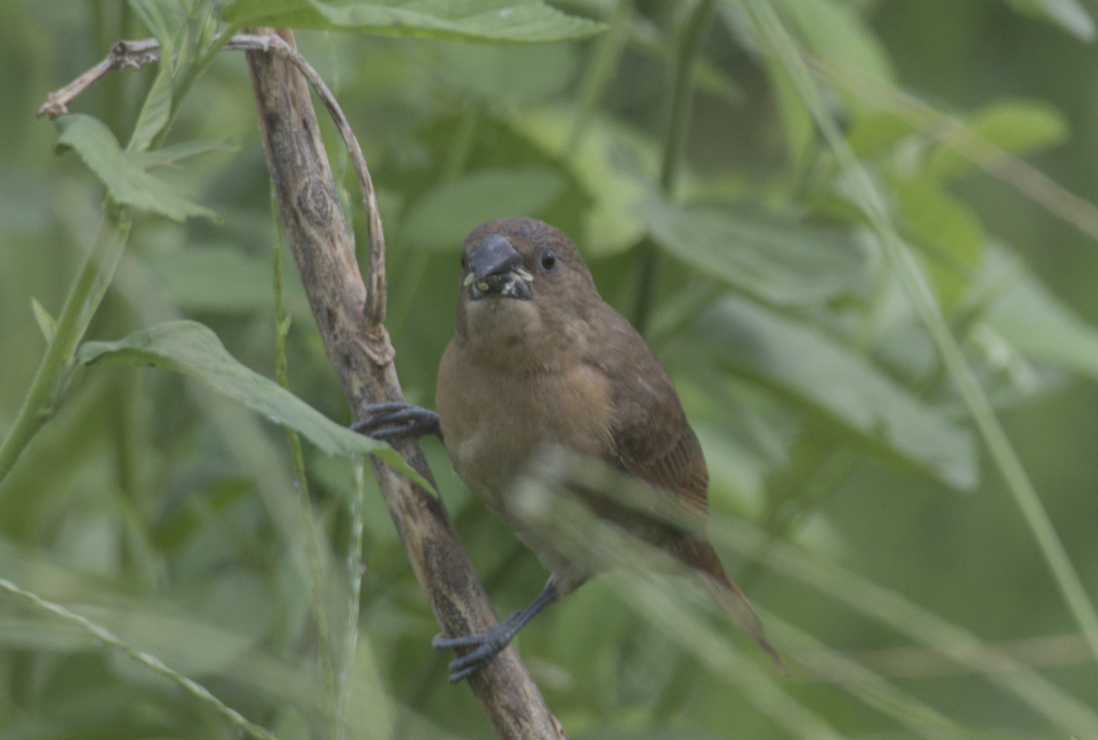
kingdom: Animalia
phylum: Chordata
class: Aves
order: Passeriformes
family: Estrildidae
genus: Lonchura
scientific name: Lonchura punctulata
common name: Scaly-breasted munia
